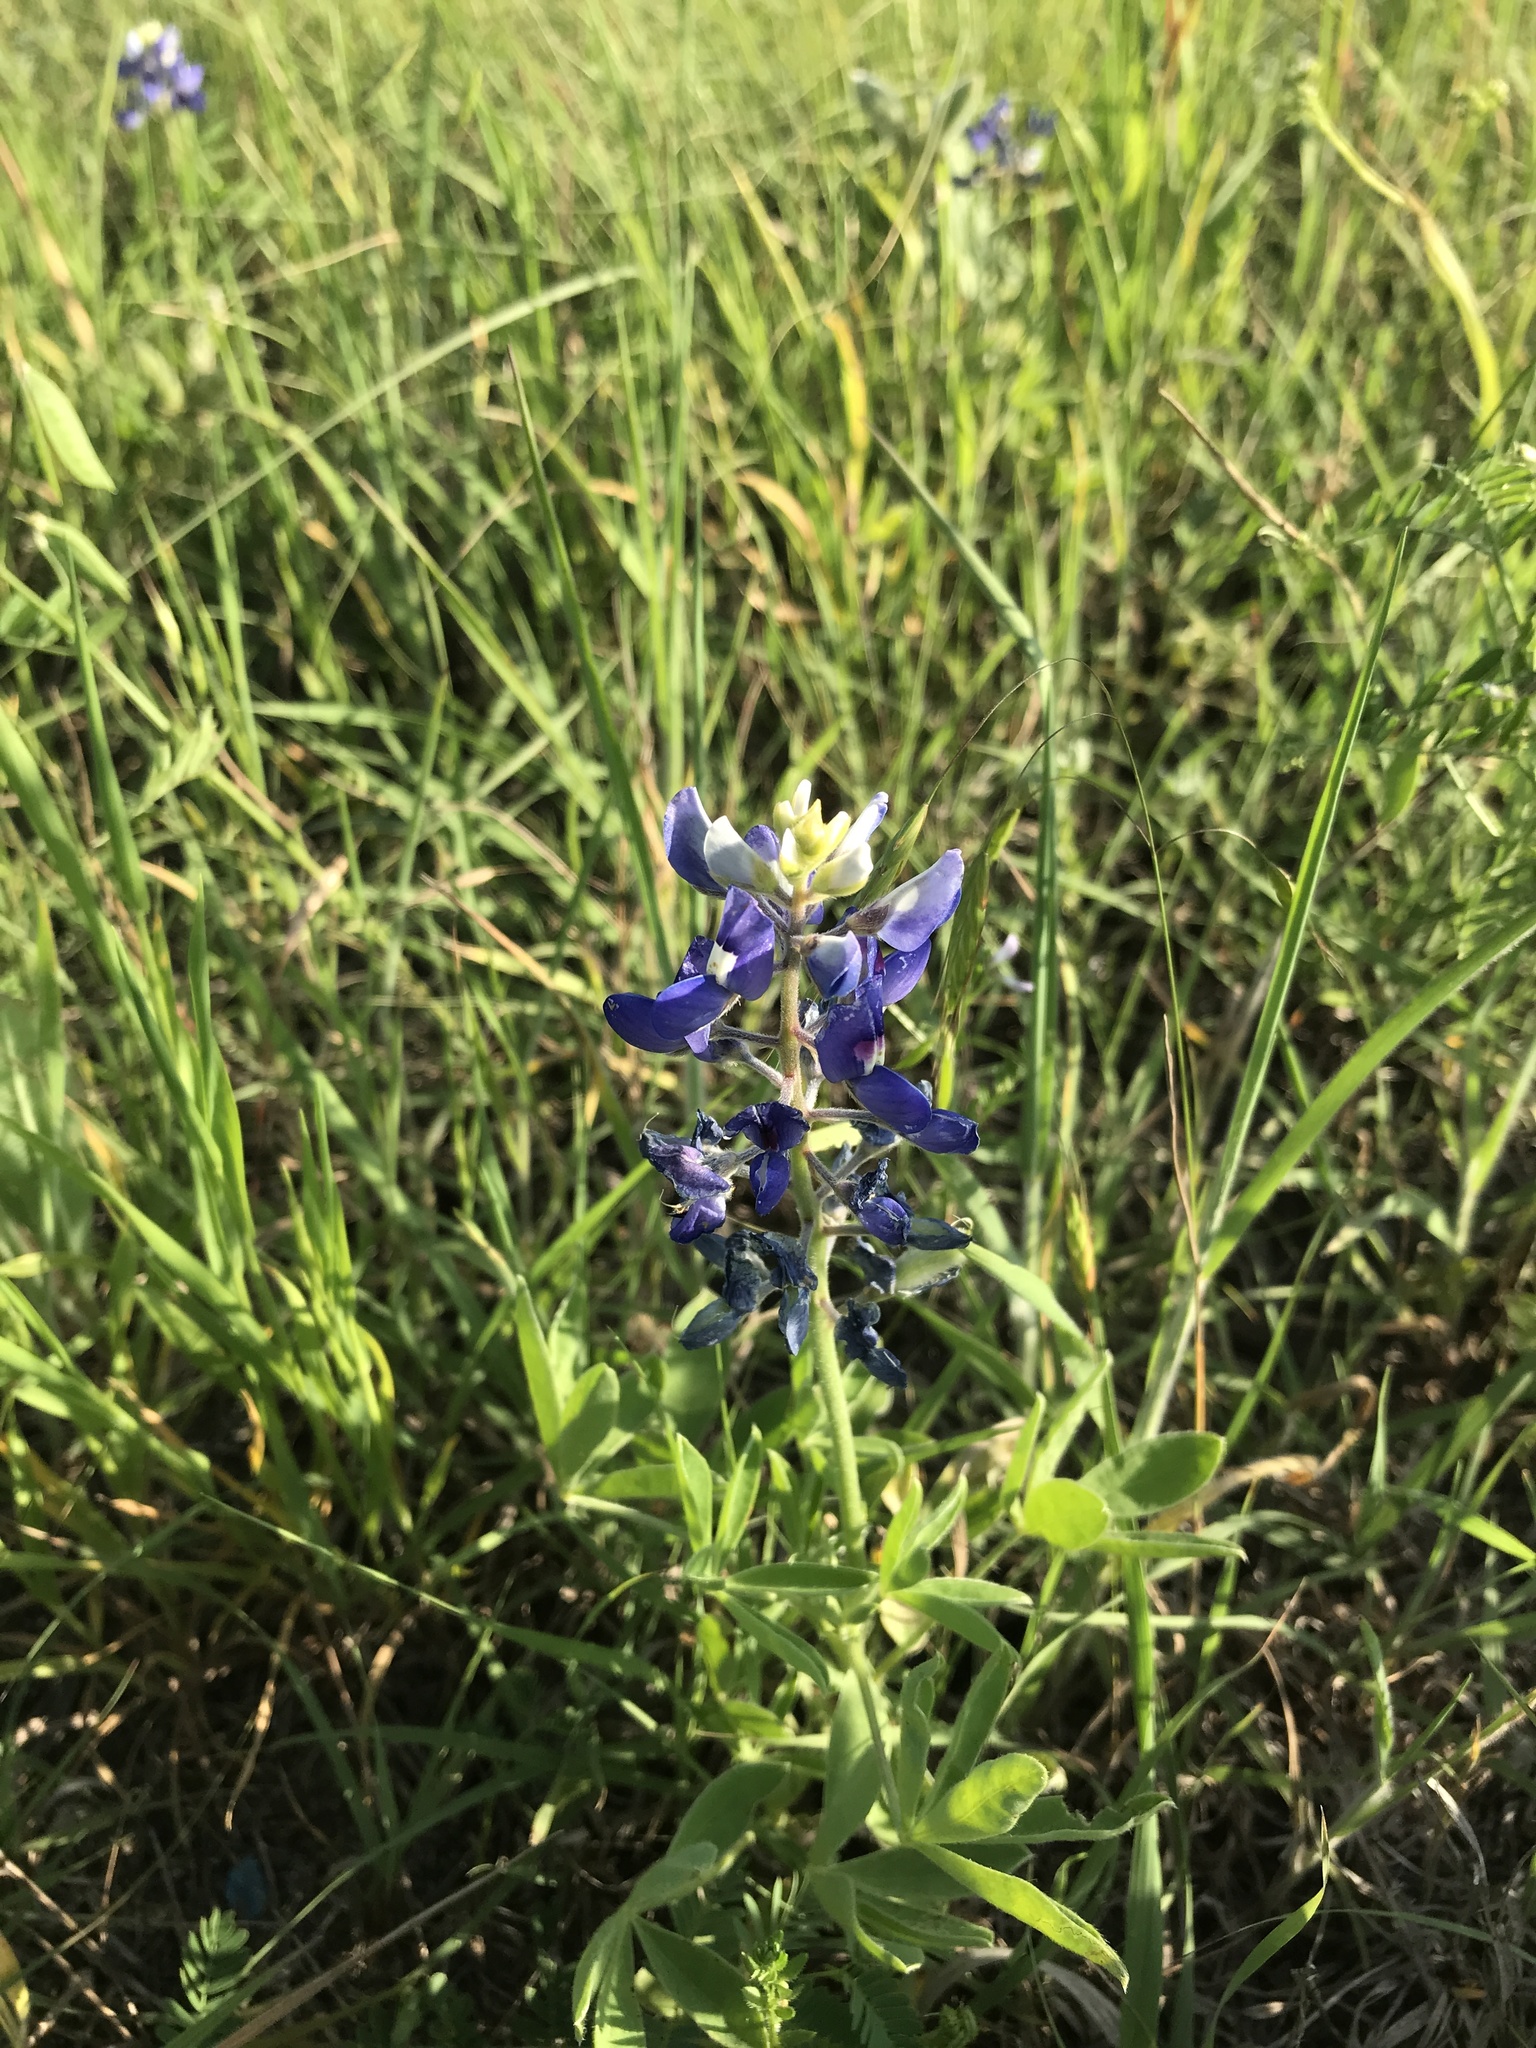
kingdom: Plantae
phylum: Tracheophyta
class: Magnoliopsida
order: Fabales
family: Fabaceae
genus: Lupinus
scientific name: Lupinus texensis
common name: Texas bluebonnet
